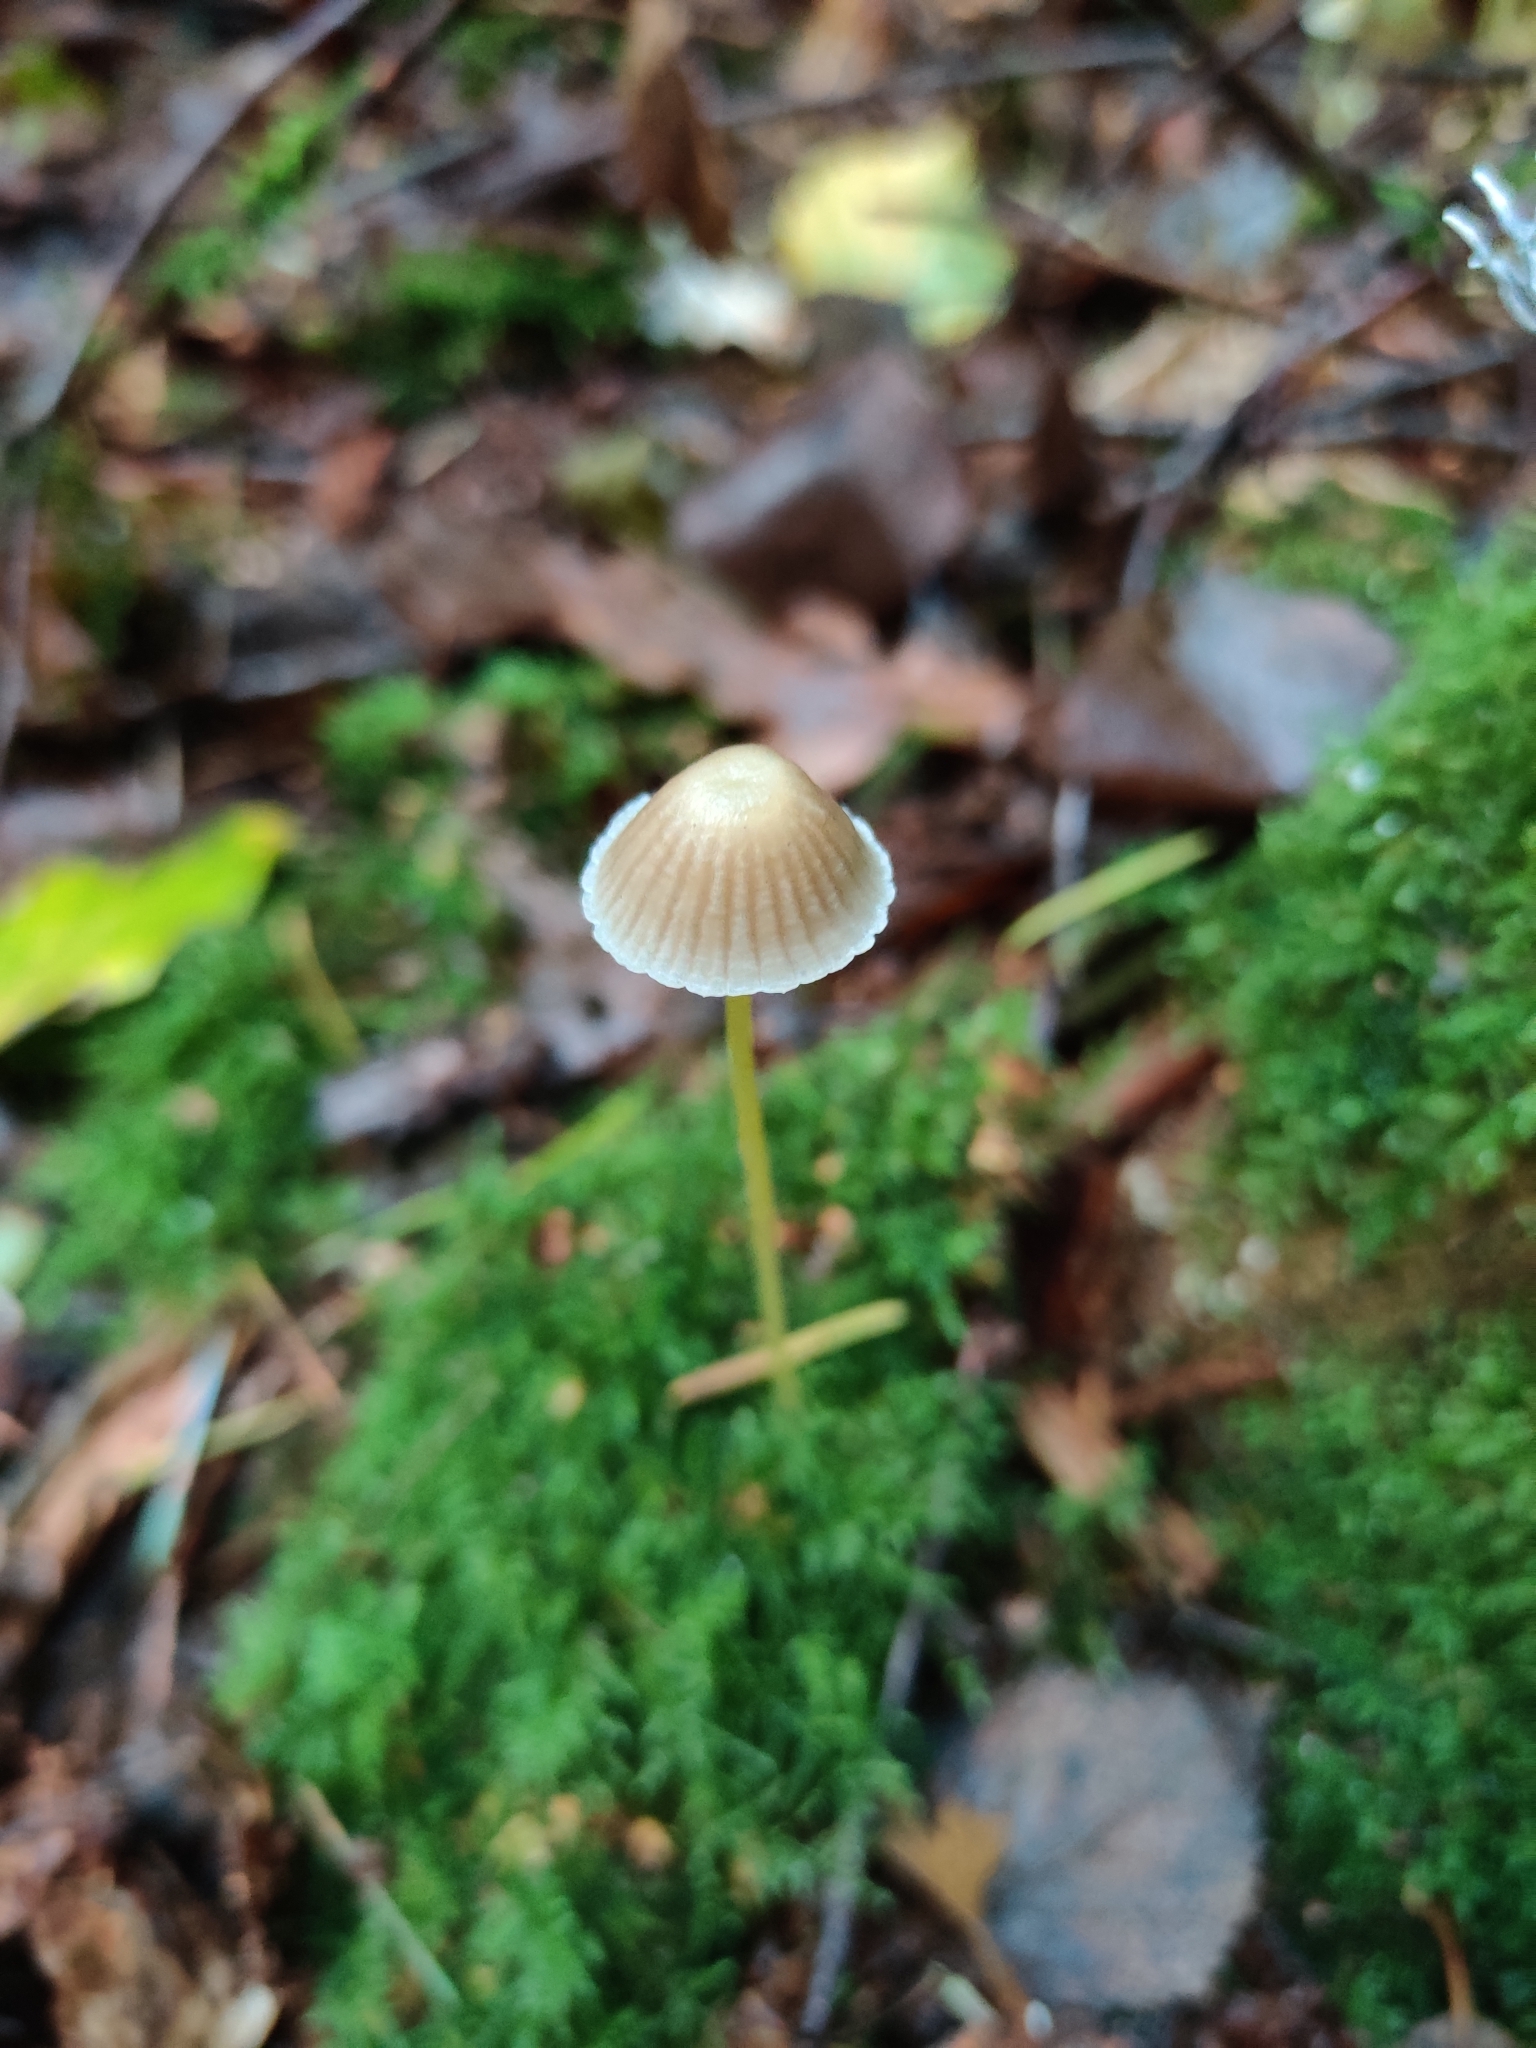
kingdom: Fungi
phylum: Basidiomycota
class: Agaricomycetes
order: Agaricales
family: Mycenaceae
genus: Mycena
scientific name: Mycena epipterygia
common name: Yellowleg bonnet
